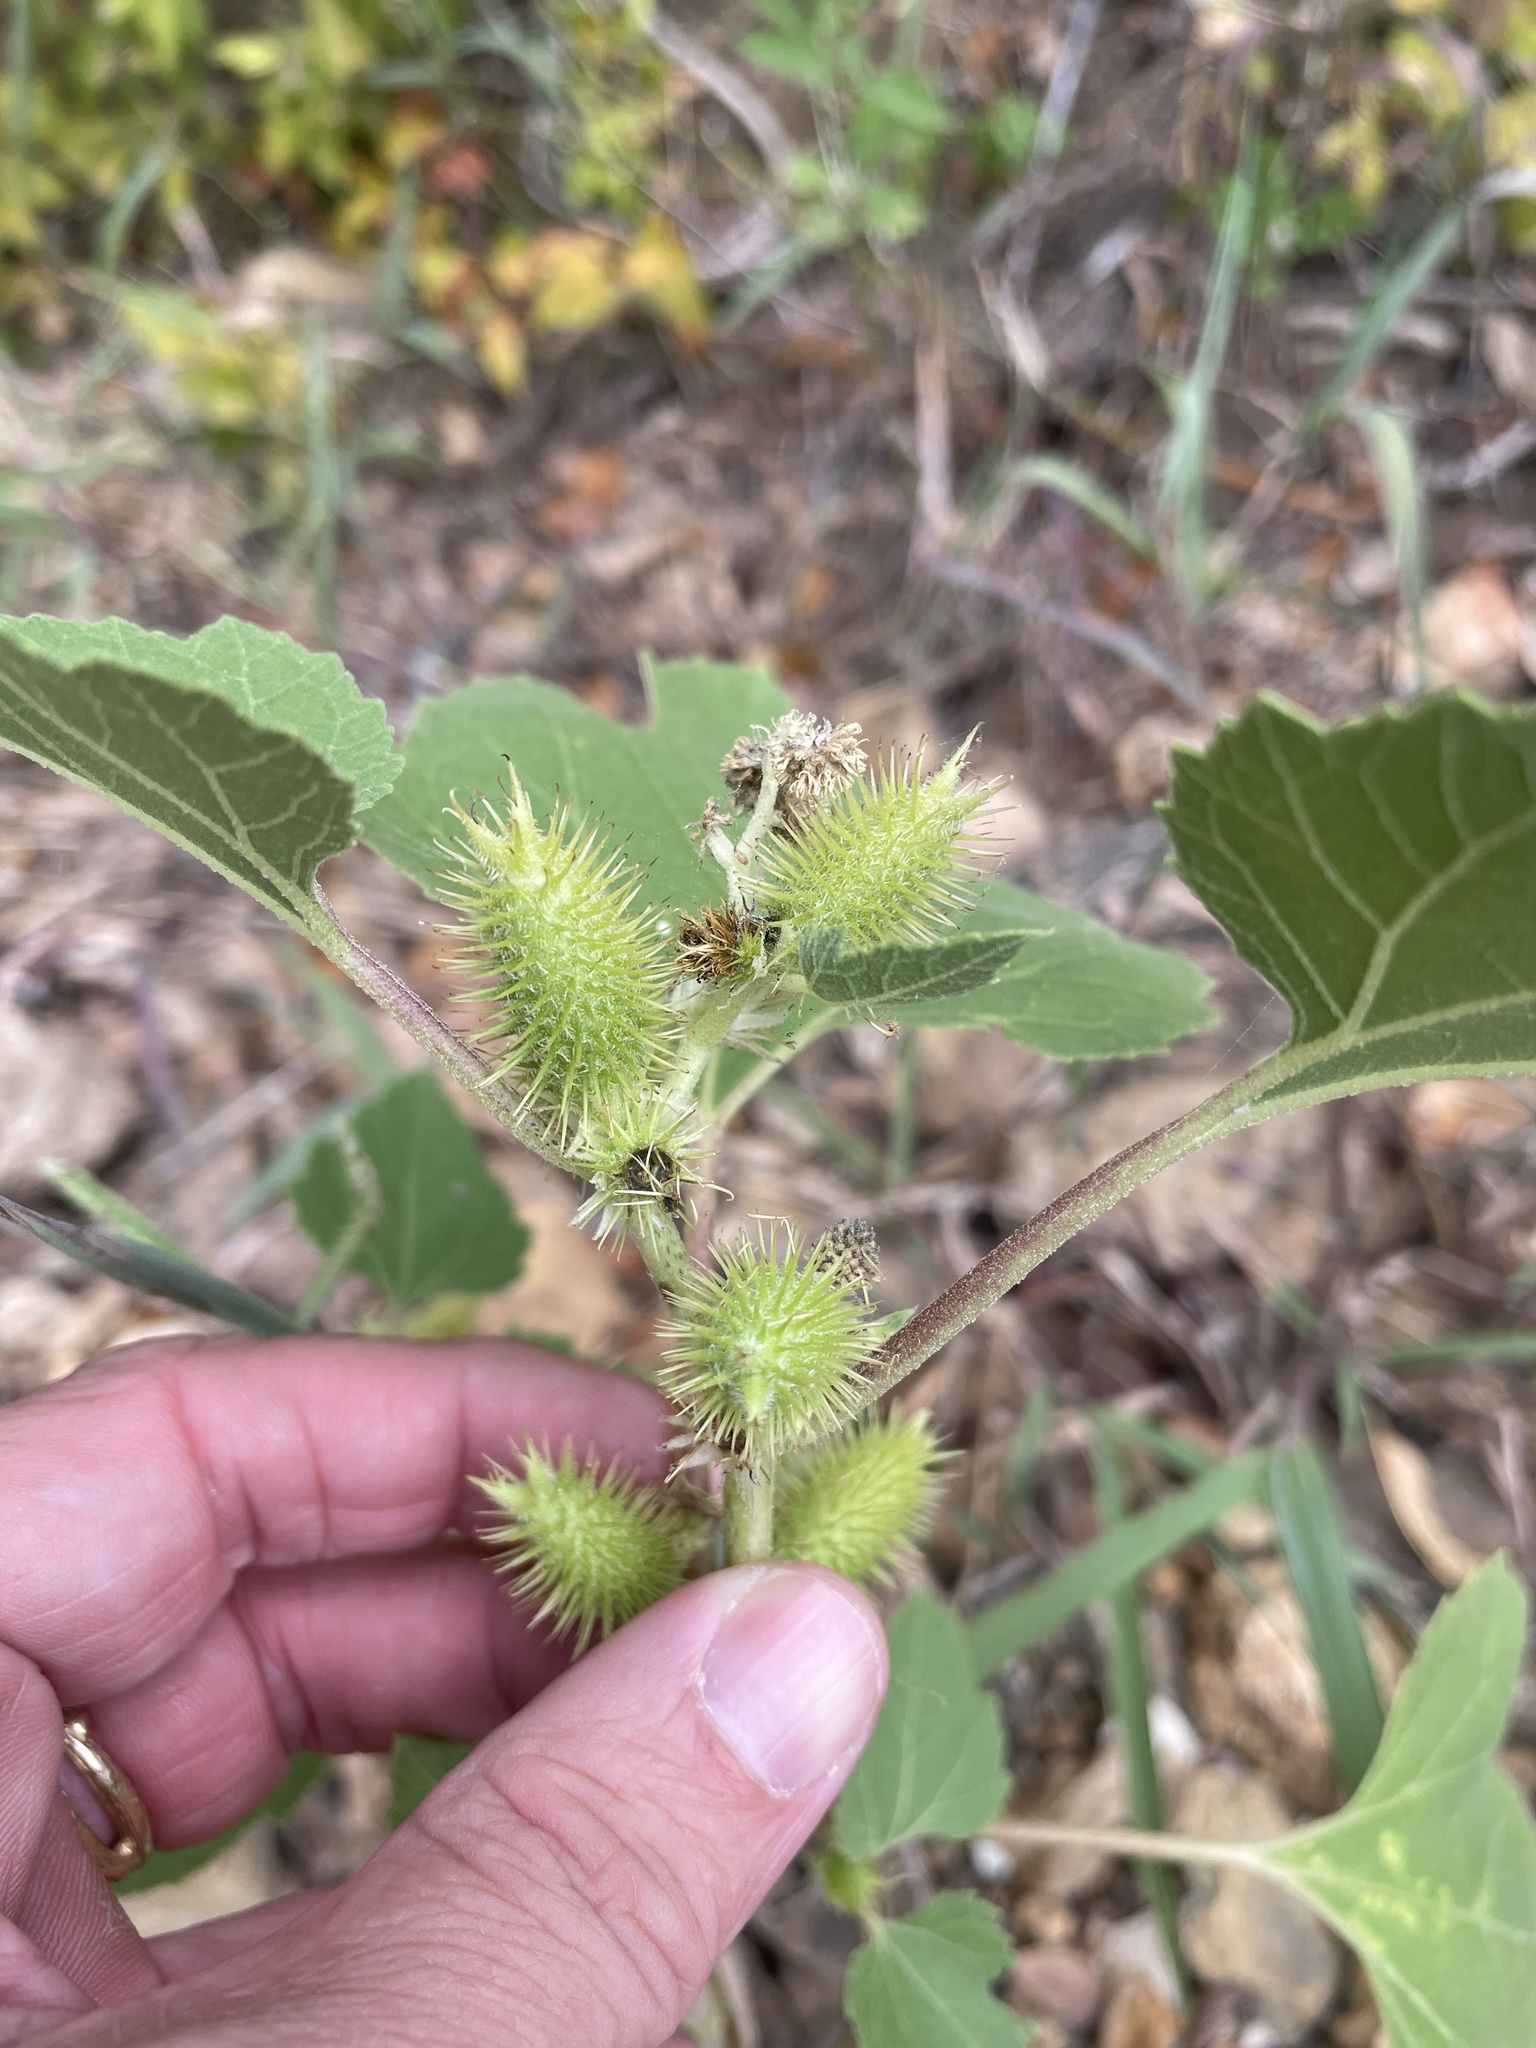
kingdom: Plantae
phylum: Tracheophyta
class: Magnoliopsida
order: Asterales
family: Asteraceae
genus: Xanthium
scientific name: Xanthium strumarium
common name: Rough cocklebur
